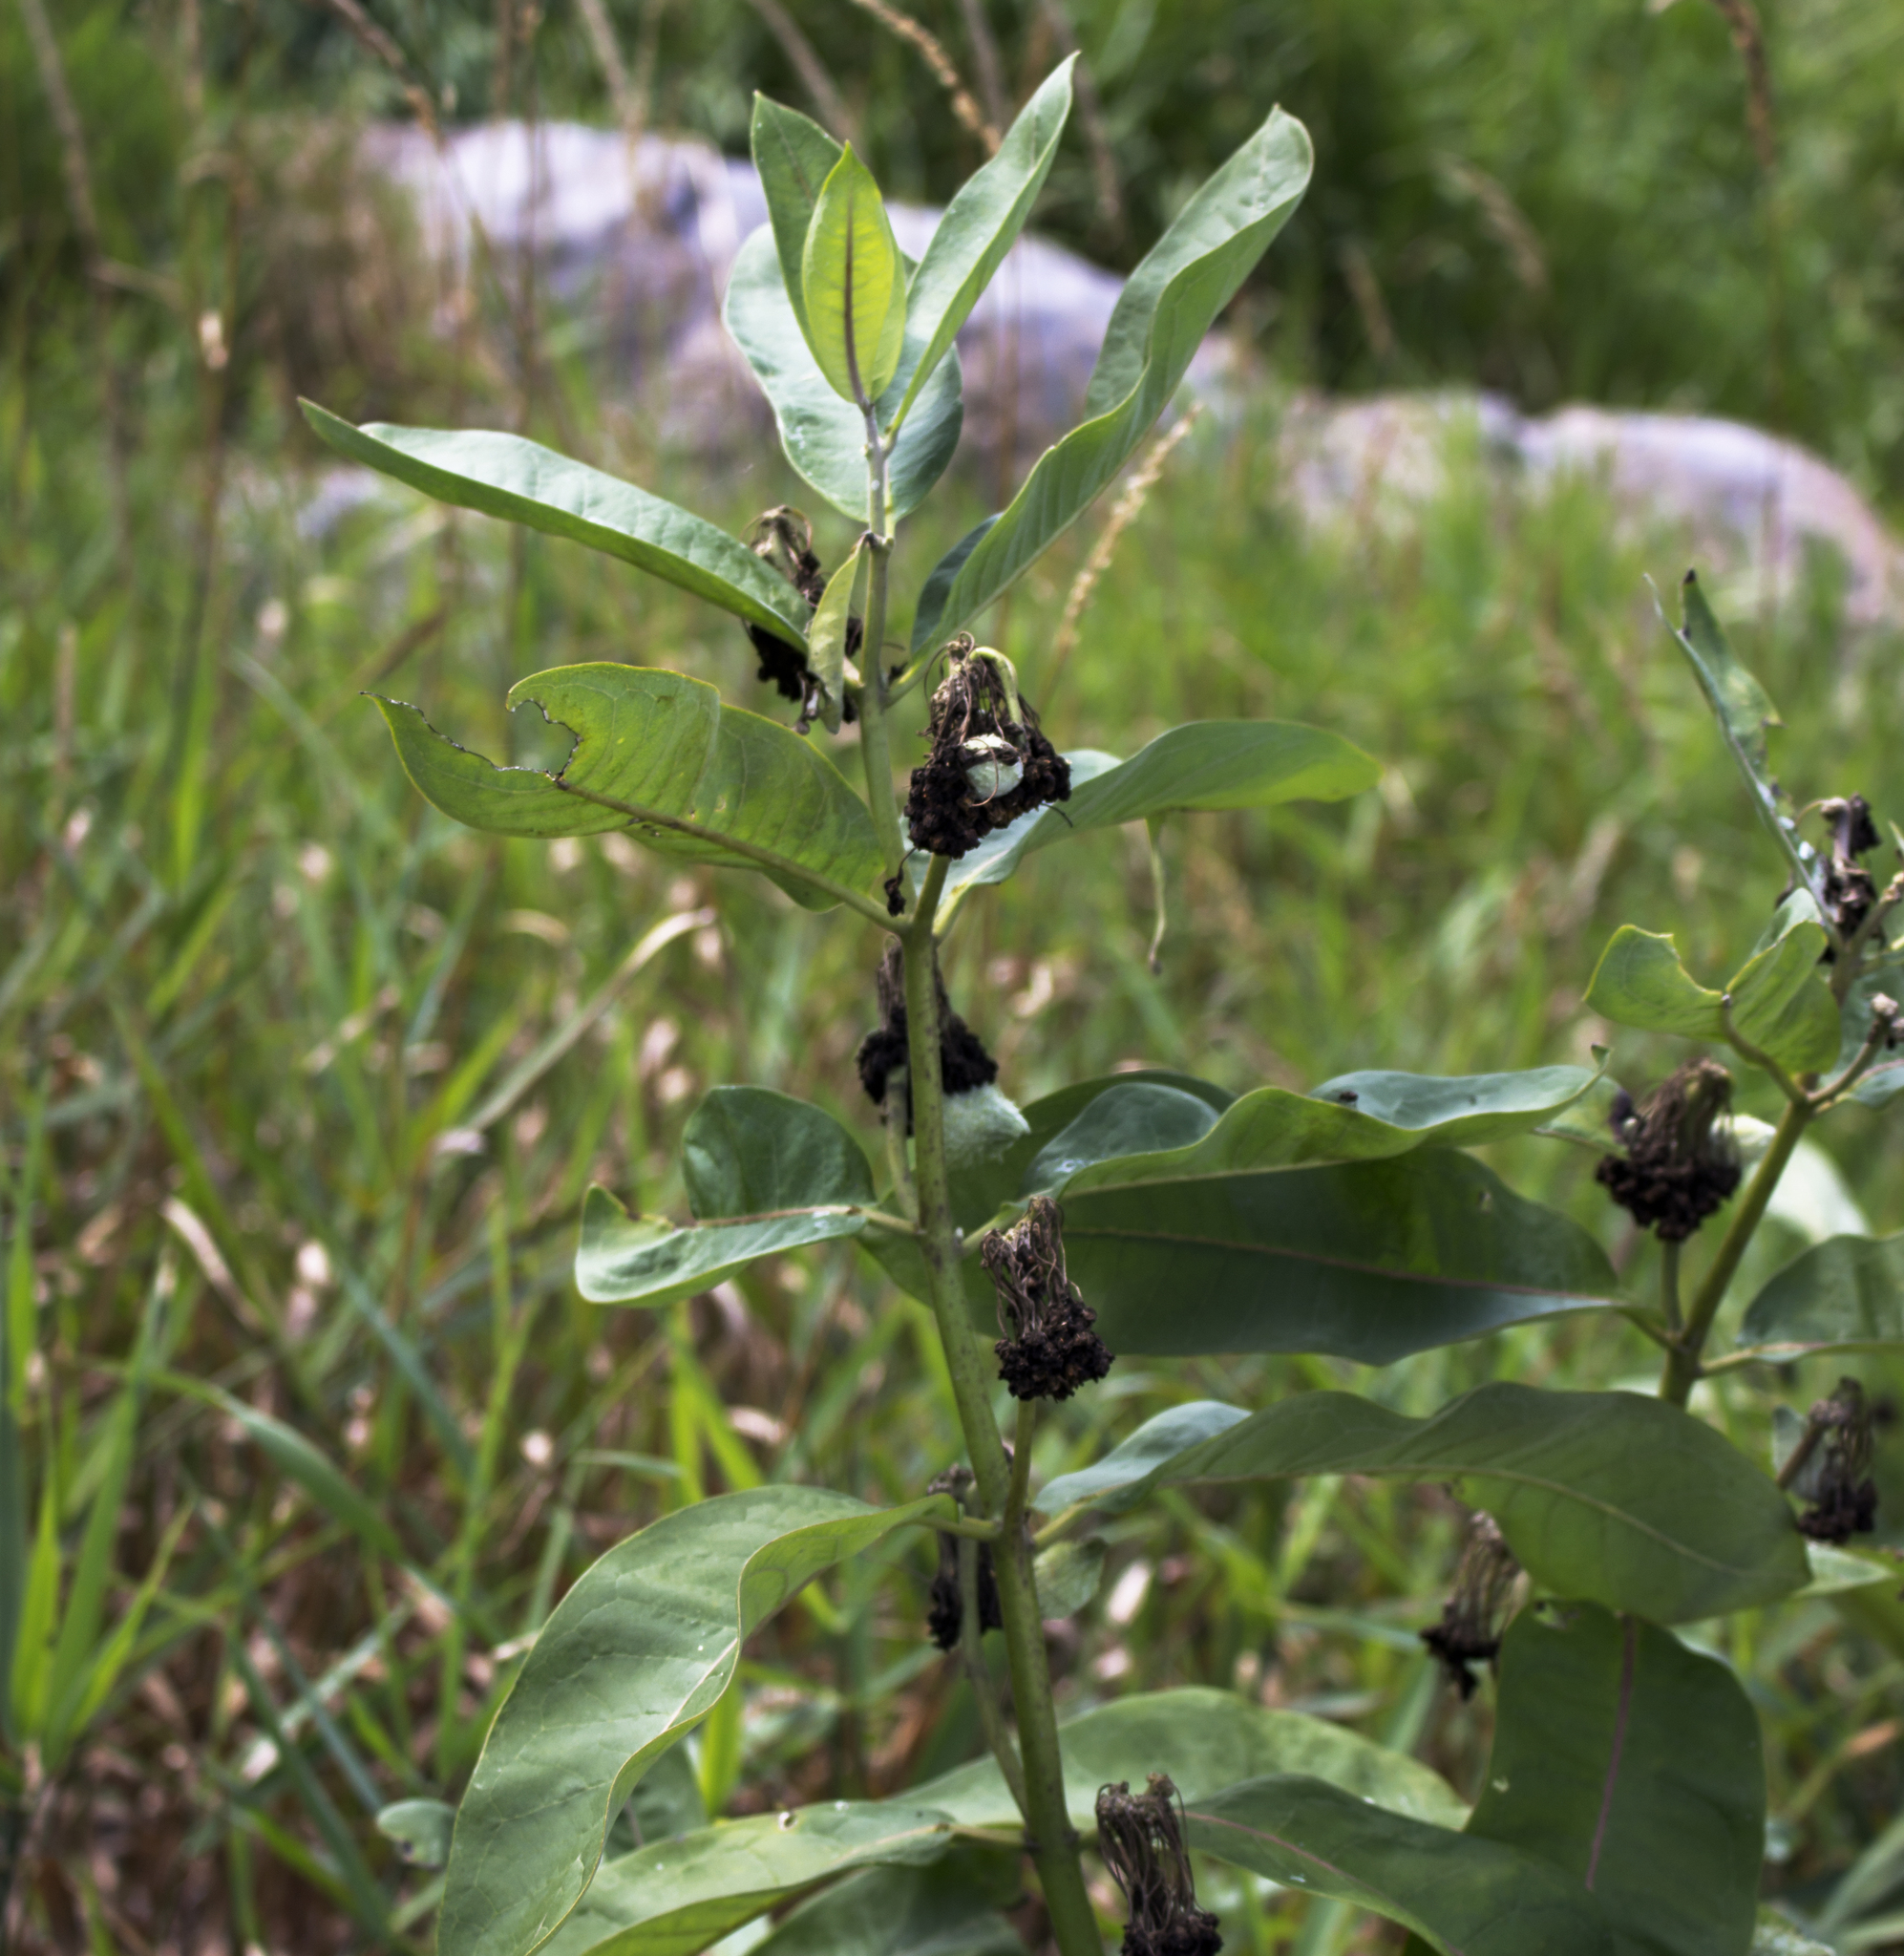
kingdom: Plantae
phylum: Tracheophyta
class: Magnoliopsida
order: Gentianales
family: Apocynaceae
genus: Asclepias
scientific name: Asclepias syriaca
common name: Common milkweed
